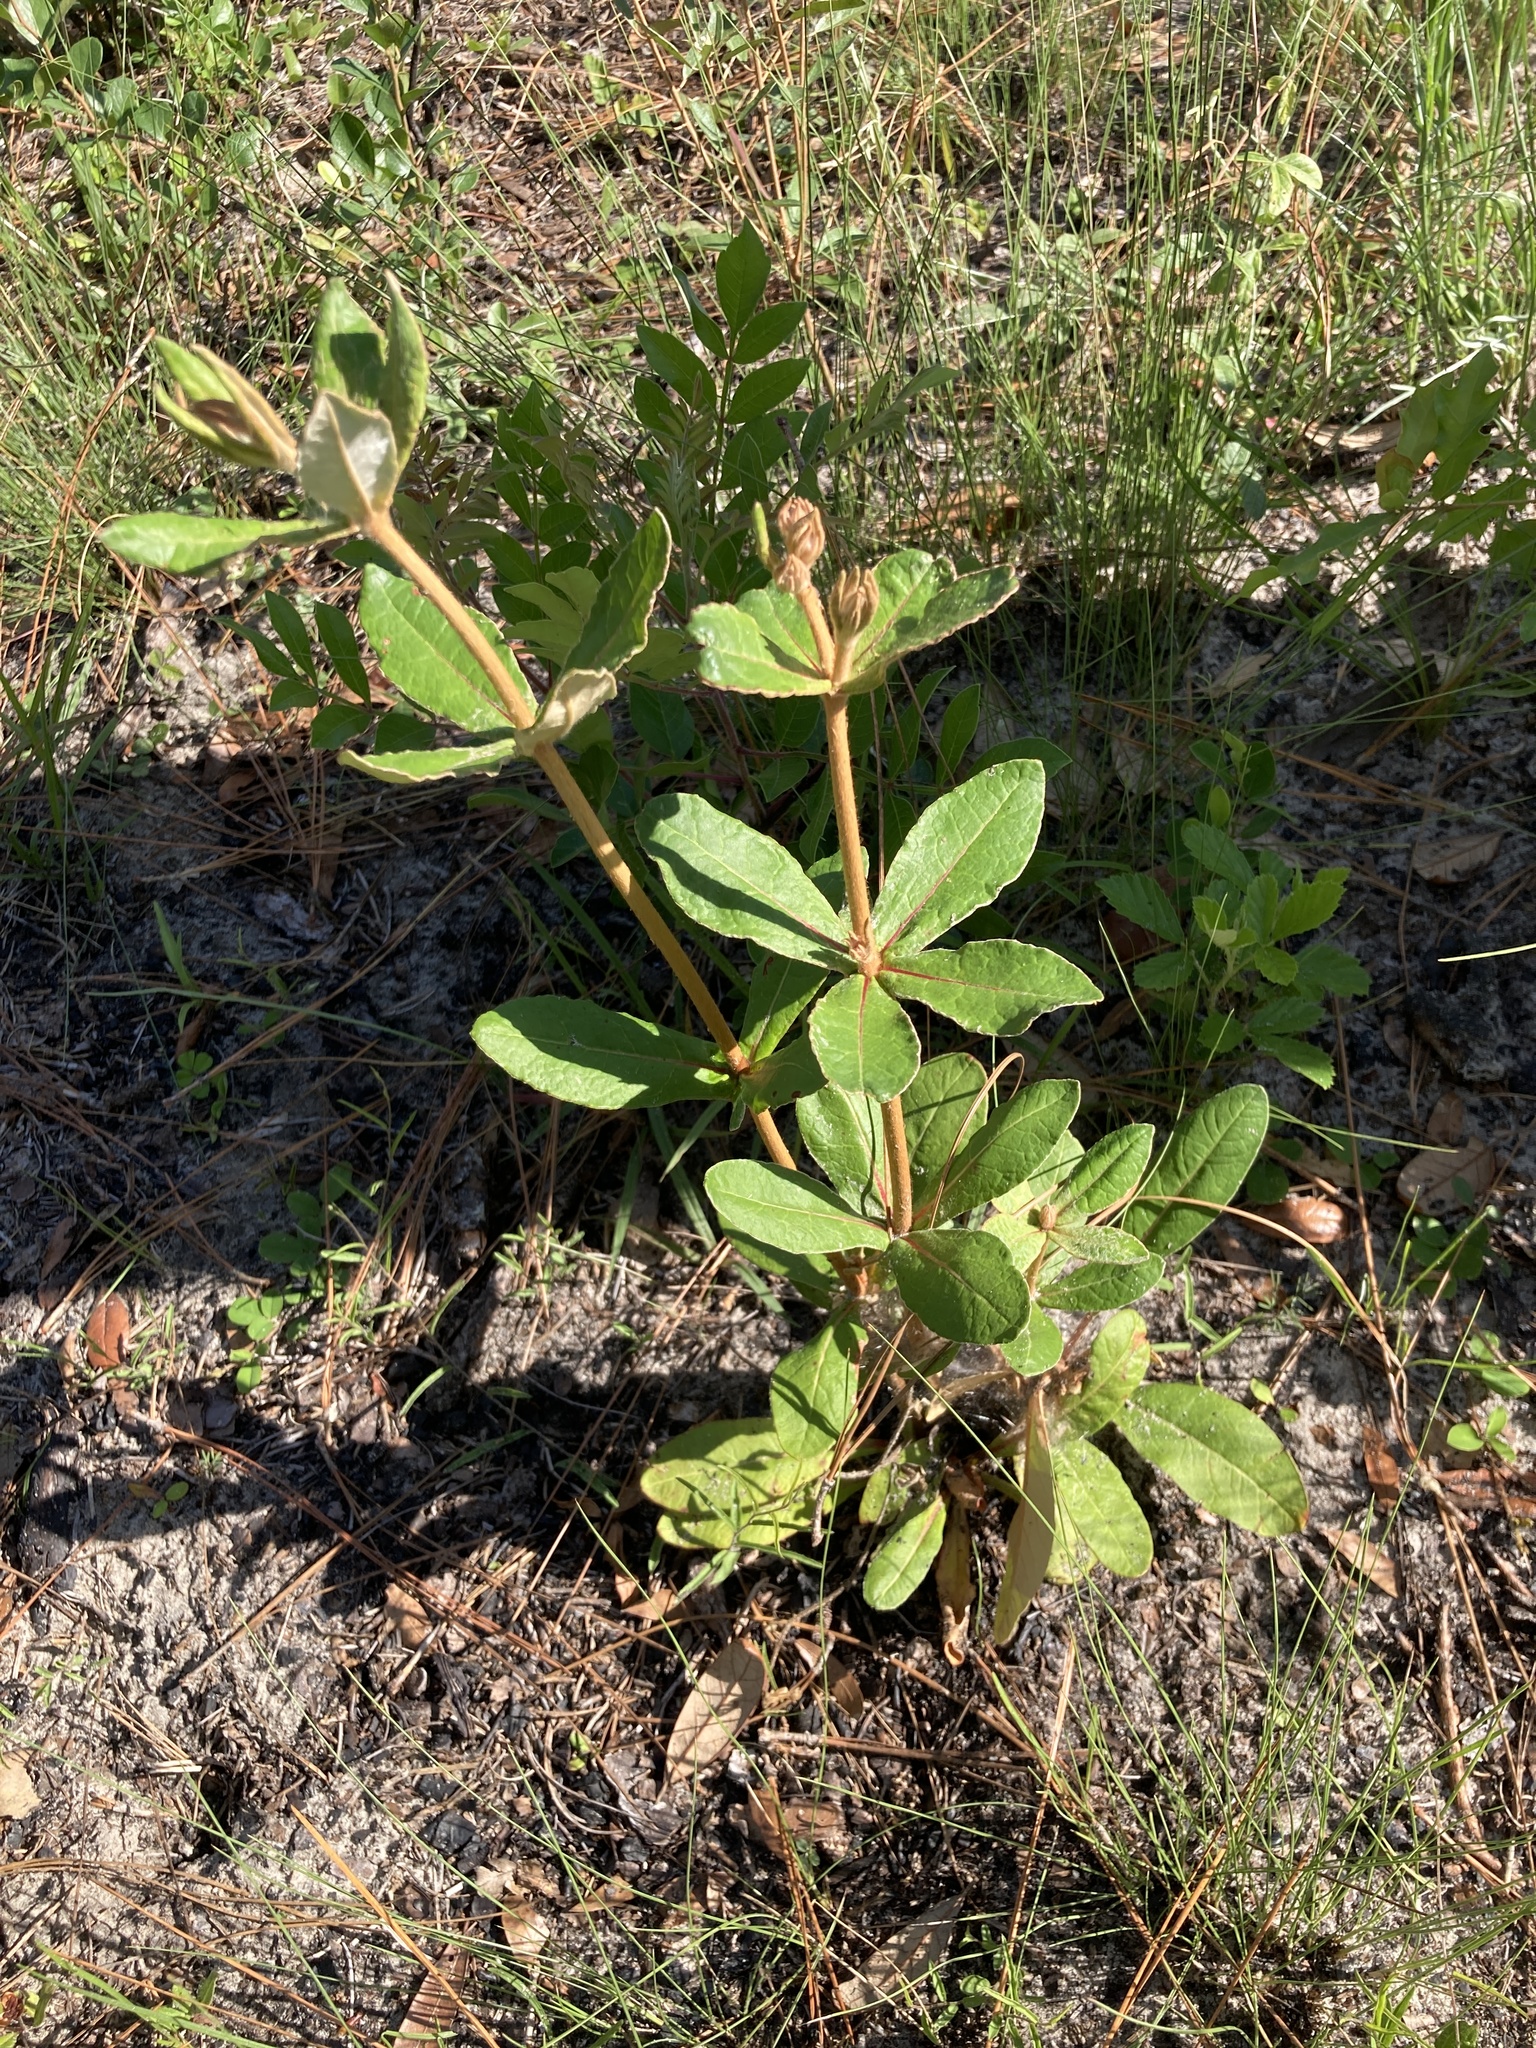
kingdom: Plantae
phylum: Tracheophyta
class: Magnoliopsida
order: Caryophyllales
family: Polygonaceae
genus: Eriogonum
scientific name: Eriogonum tomentosum
